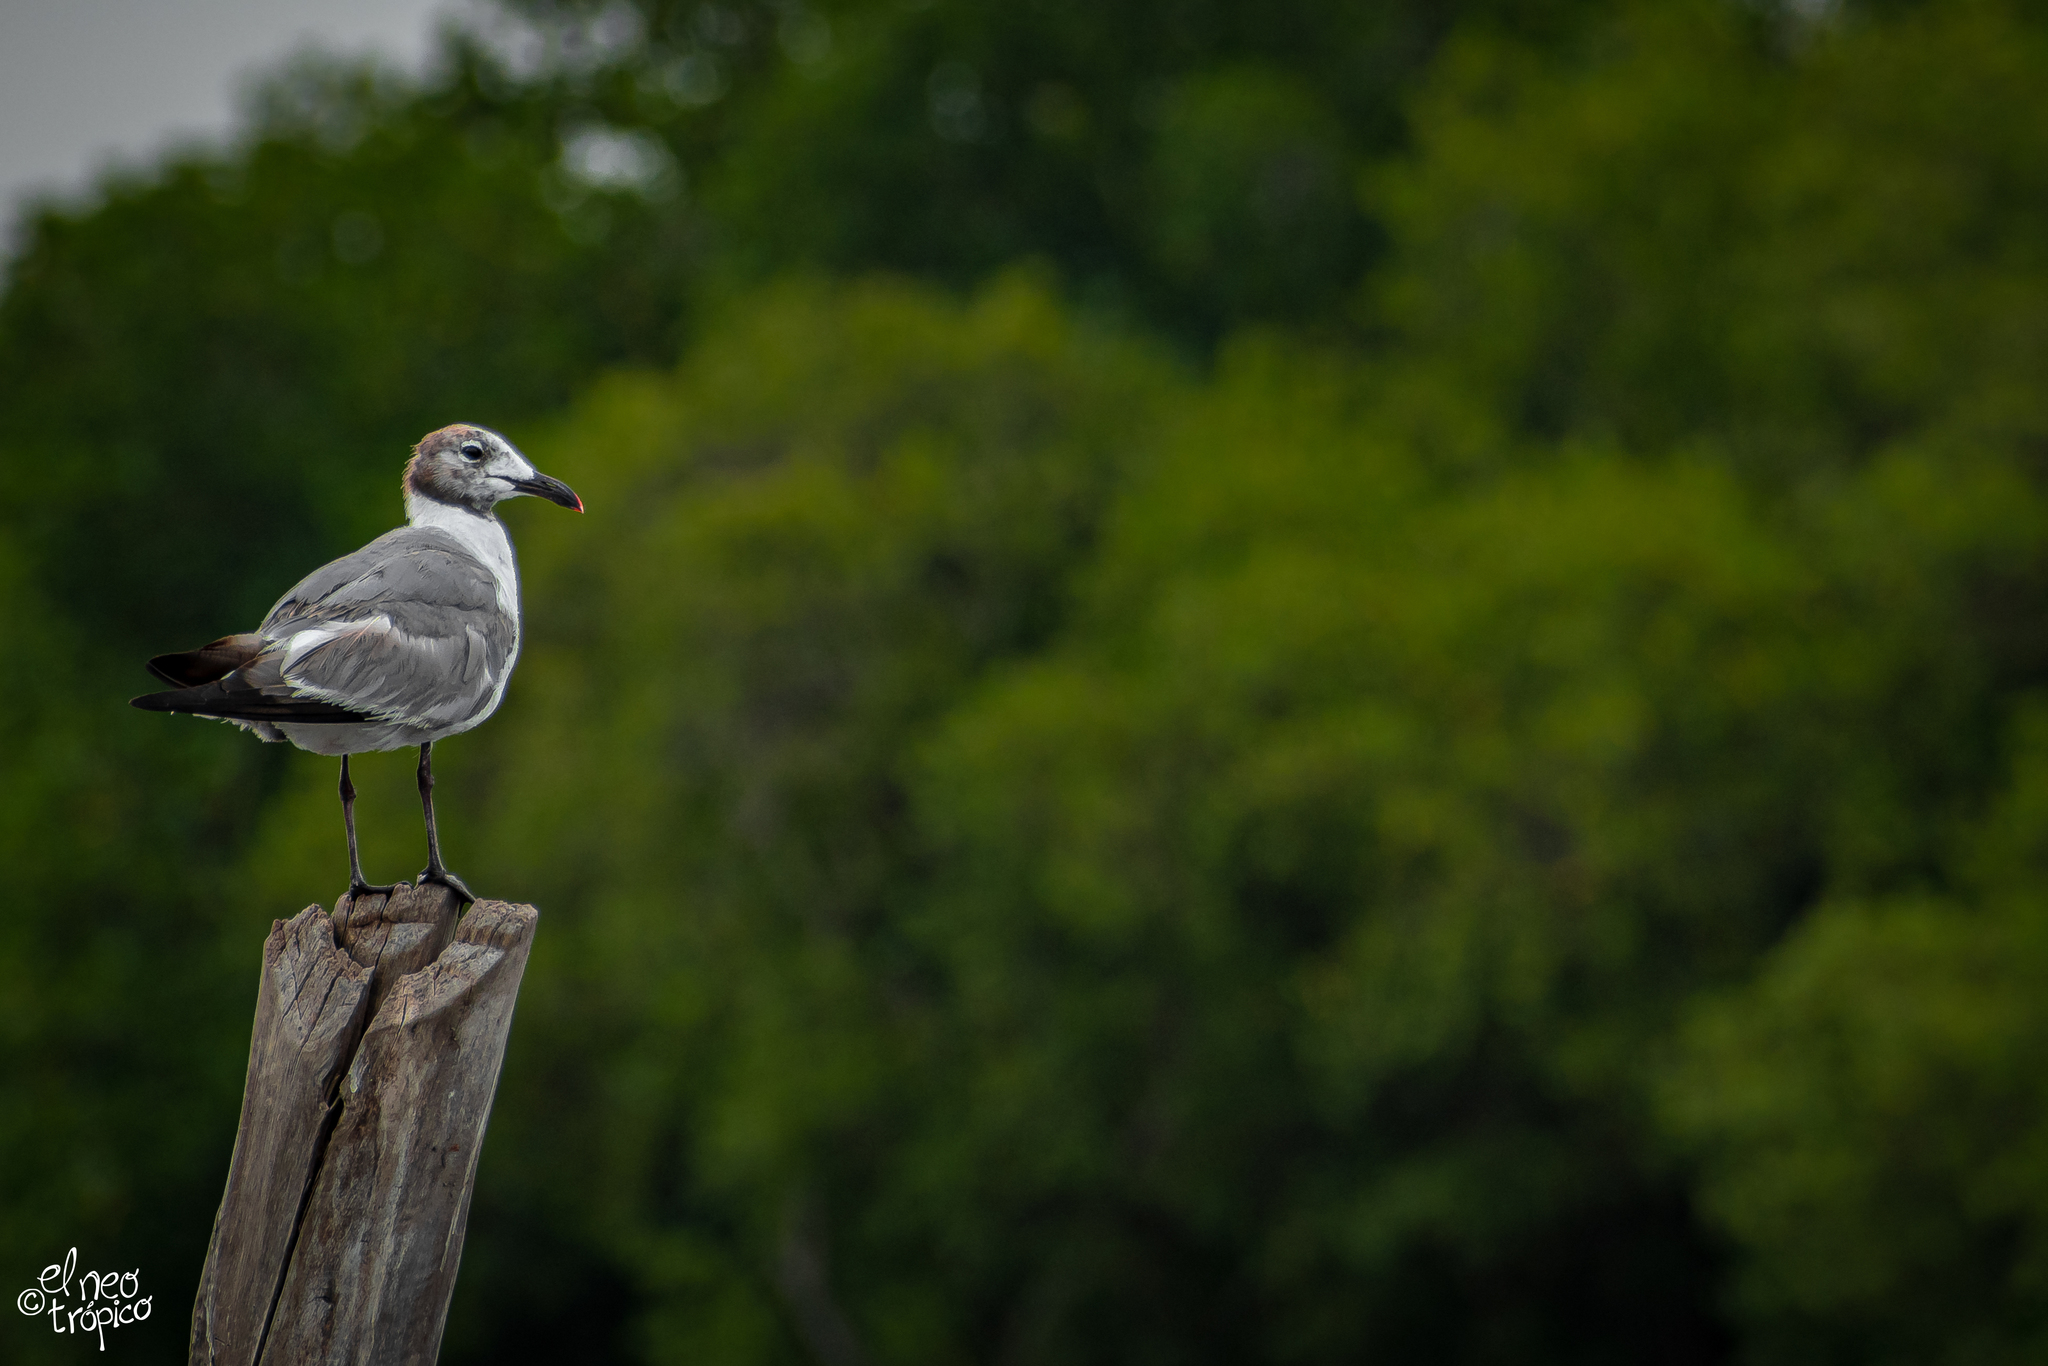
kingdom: Animalia
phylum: Chordata
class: Aves
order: Charadriiformes
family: Laridae
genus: Leucophaeus
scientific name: Leucophaeus atricilla
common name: Laughing gull
